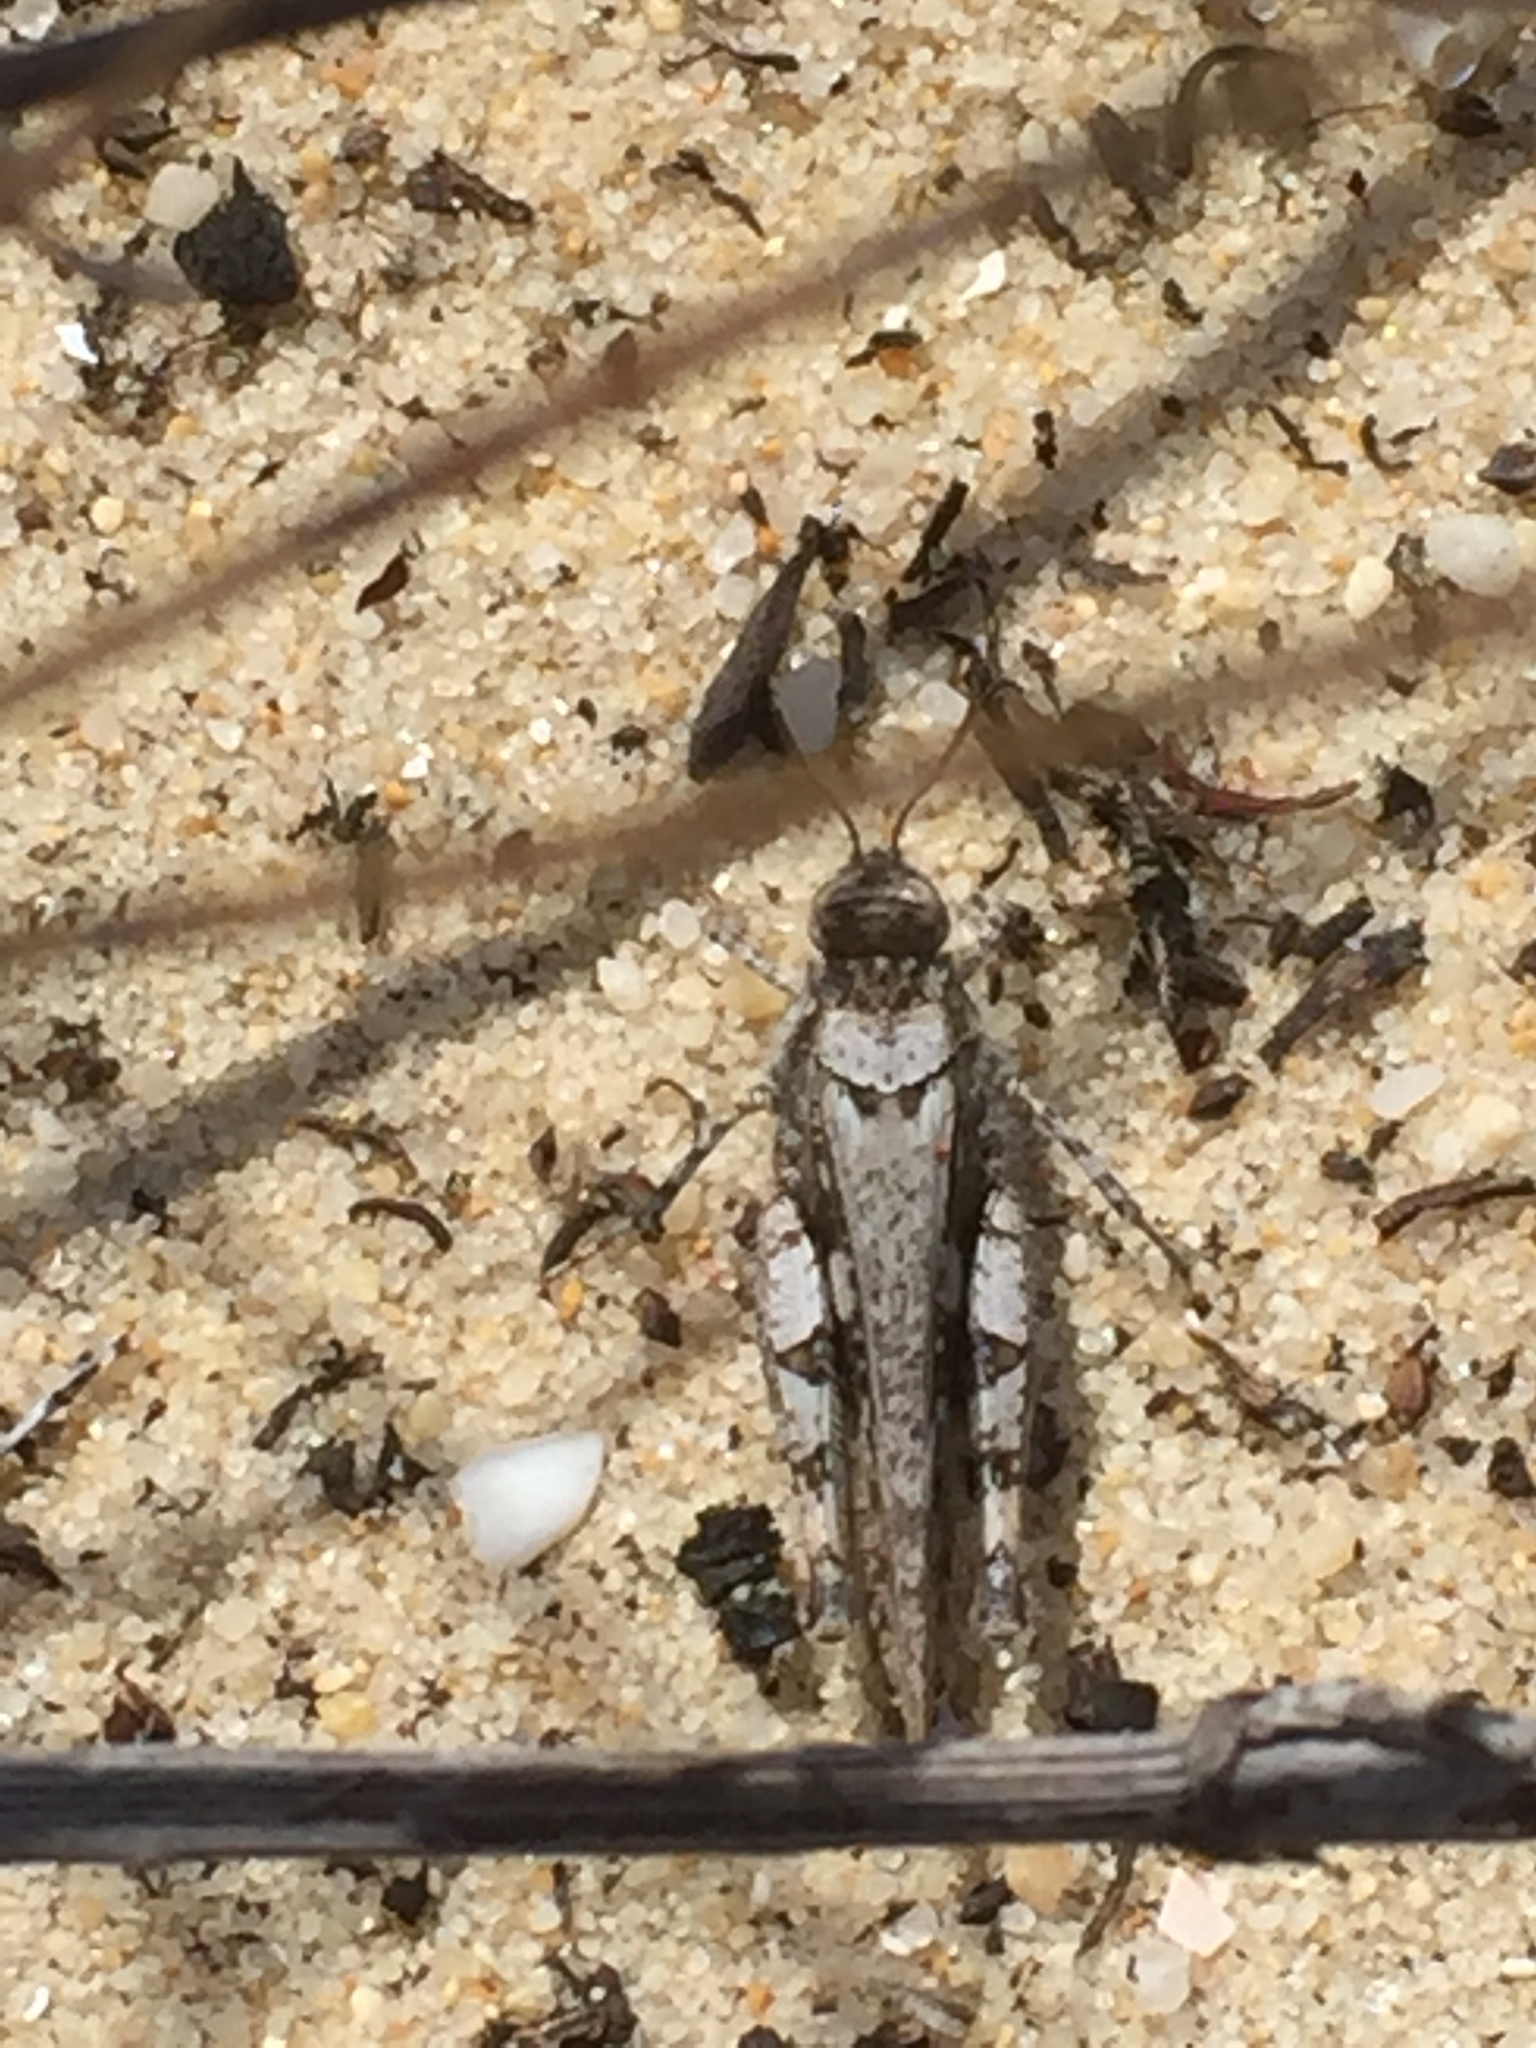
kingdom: Animalia
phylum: Arthropoda
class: Insecta
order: Orthoptera
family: Acrididae
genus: Acrotylus
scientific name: Acrotylus insubricus
